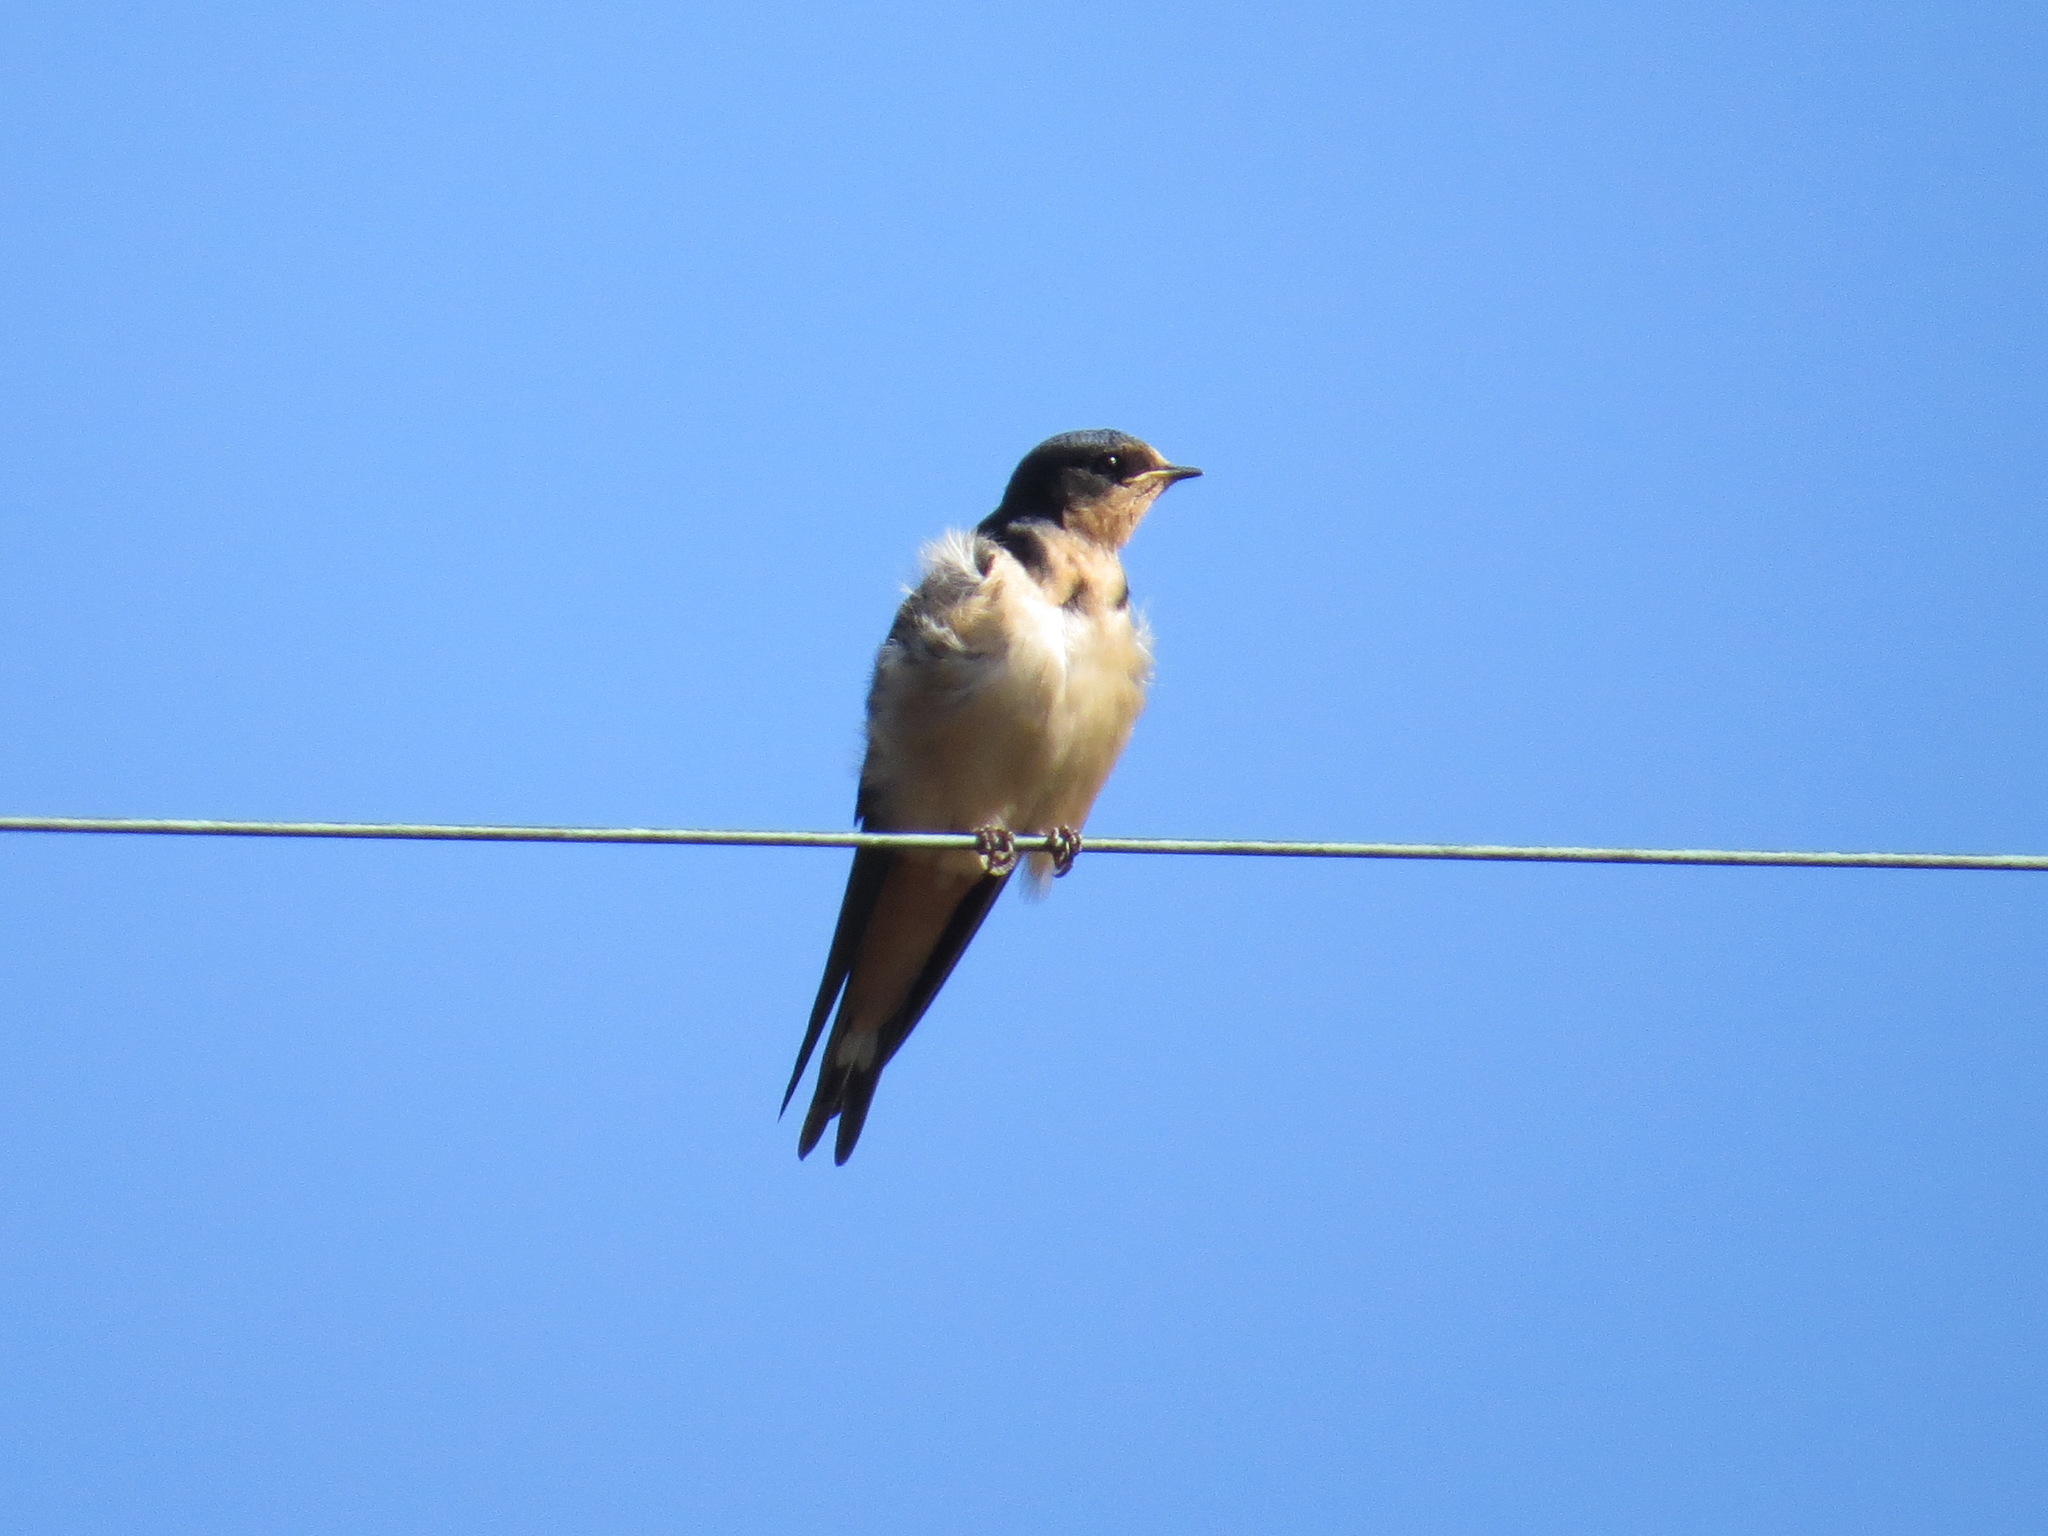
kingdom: Animalia
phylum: Chordata
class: Aves
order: Passeriformes
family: Hirundinidae
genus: Hirundo
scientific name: Hirundo rustica
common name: Barn swallow
